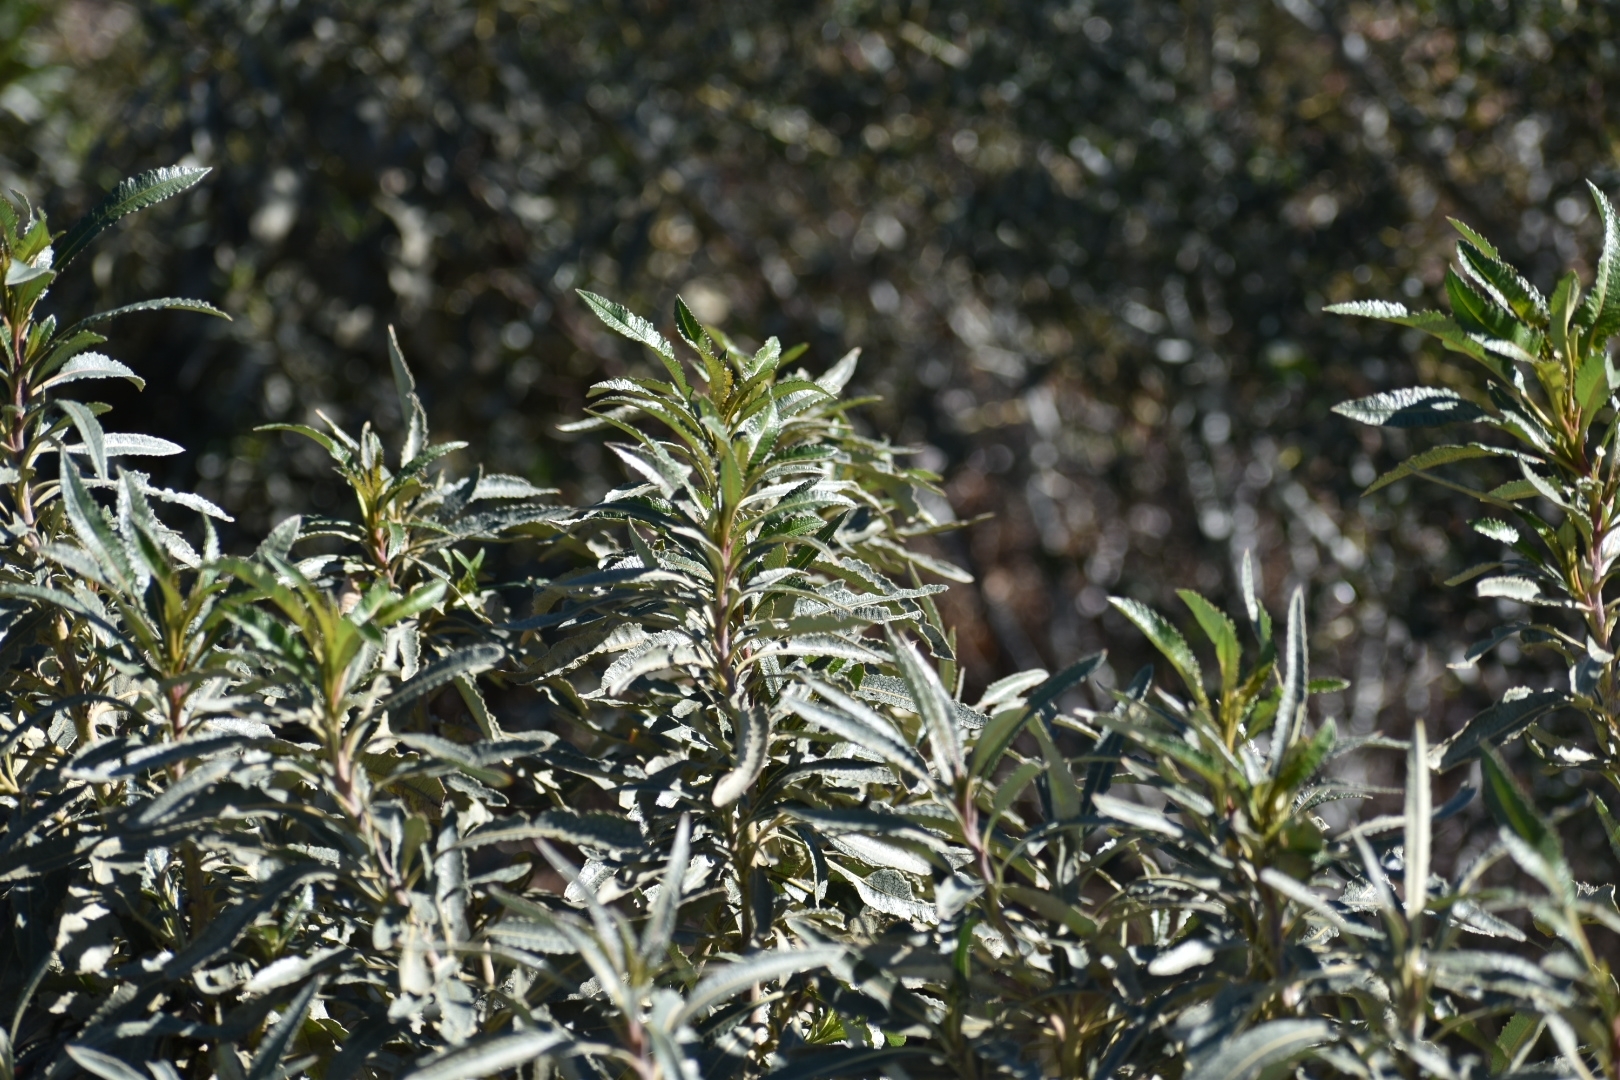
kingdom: Plantae
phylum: Tracheophyta
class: Magnoliopsida
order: Boraginales
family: Namaceae
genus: Eriodictyon
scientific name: Eriodictyon trichocalyx
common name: Hairy yerba-santa
